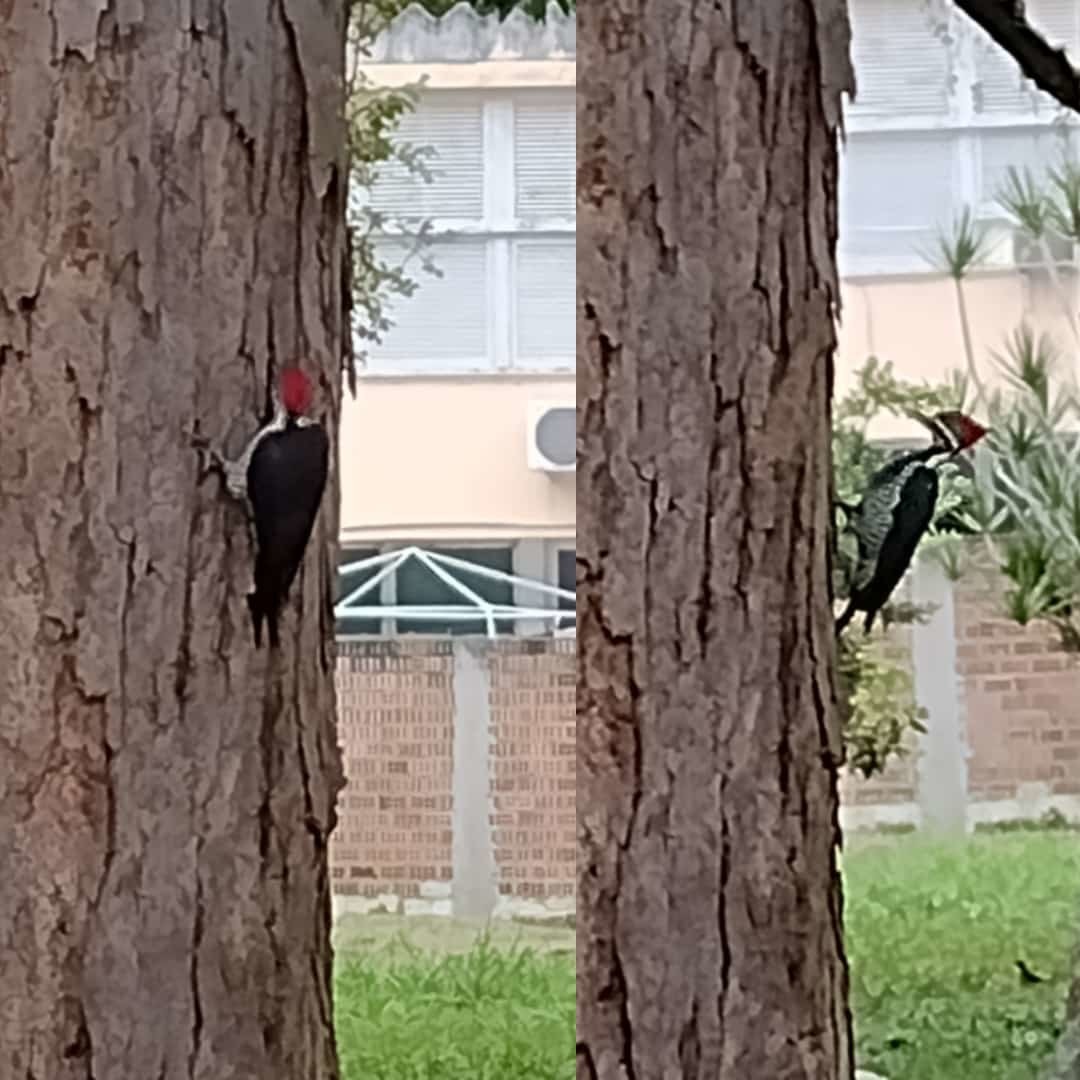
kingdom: Animalia
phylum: Chordata
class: Aves
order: Piciformes
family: Picidae
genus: Dryocopus
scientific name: Dryocopus lineatus
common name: Lineated woodpecker
